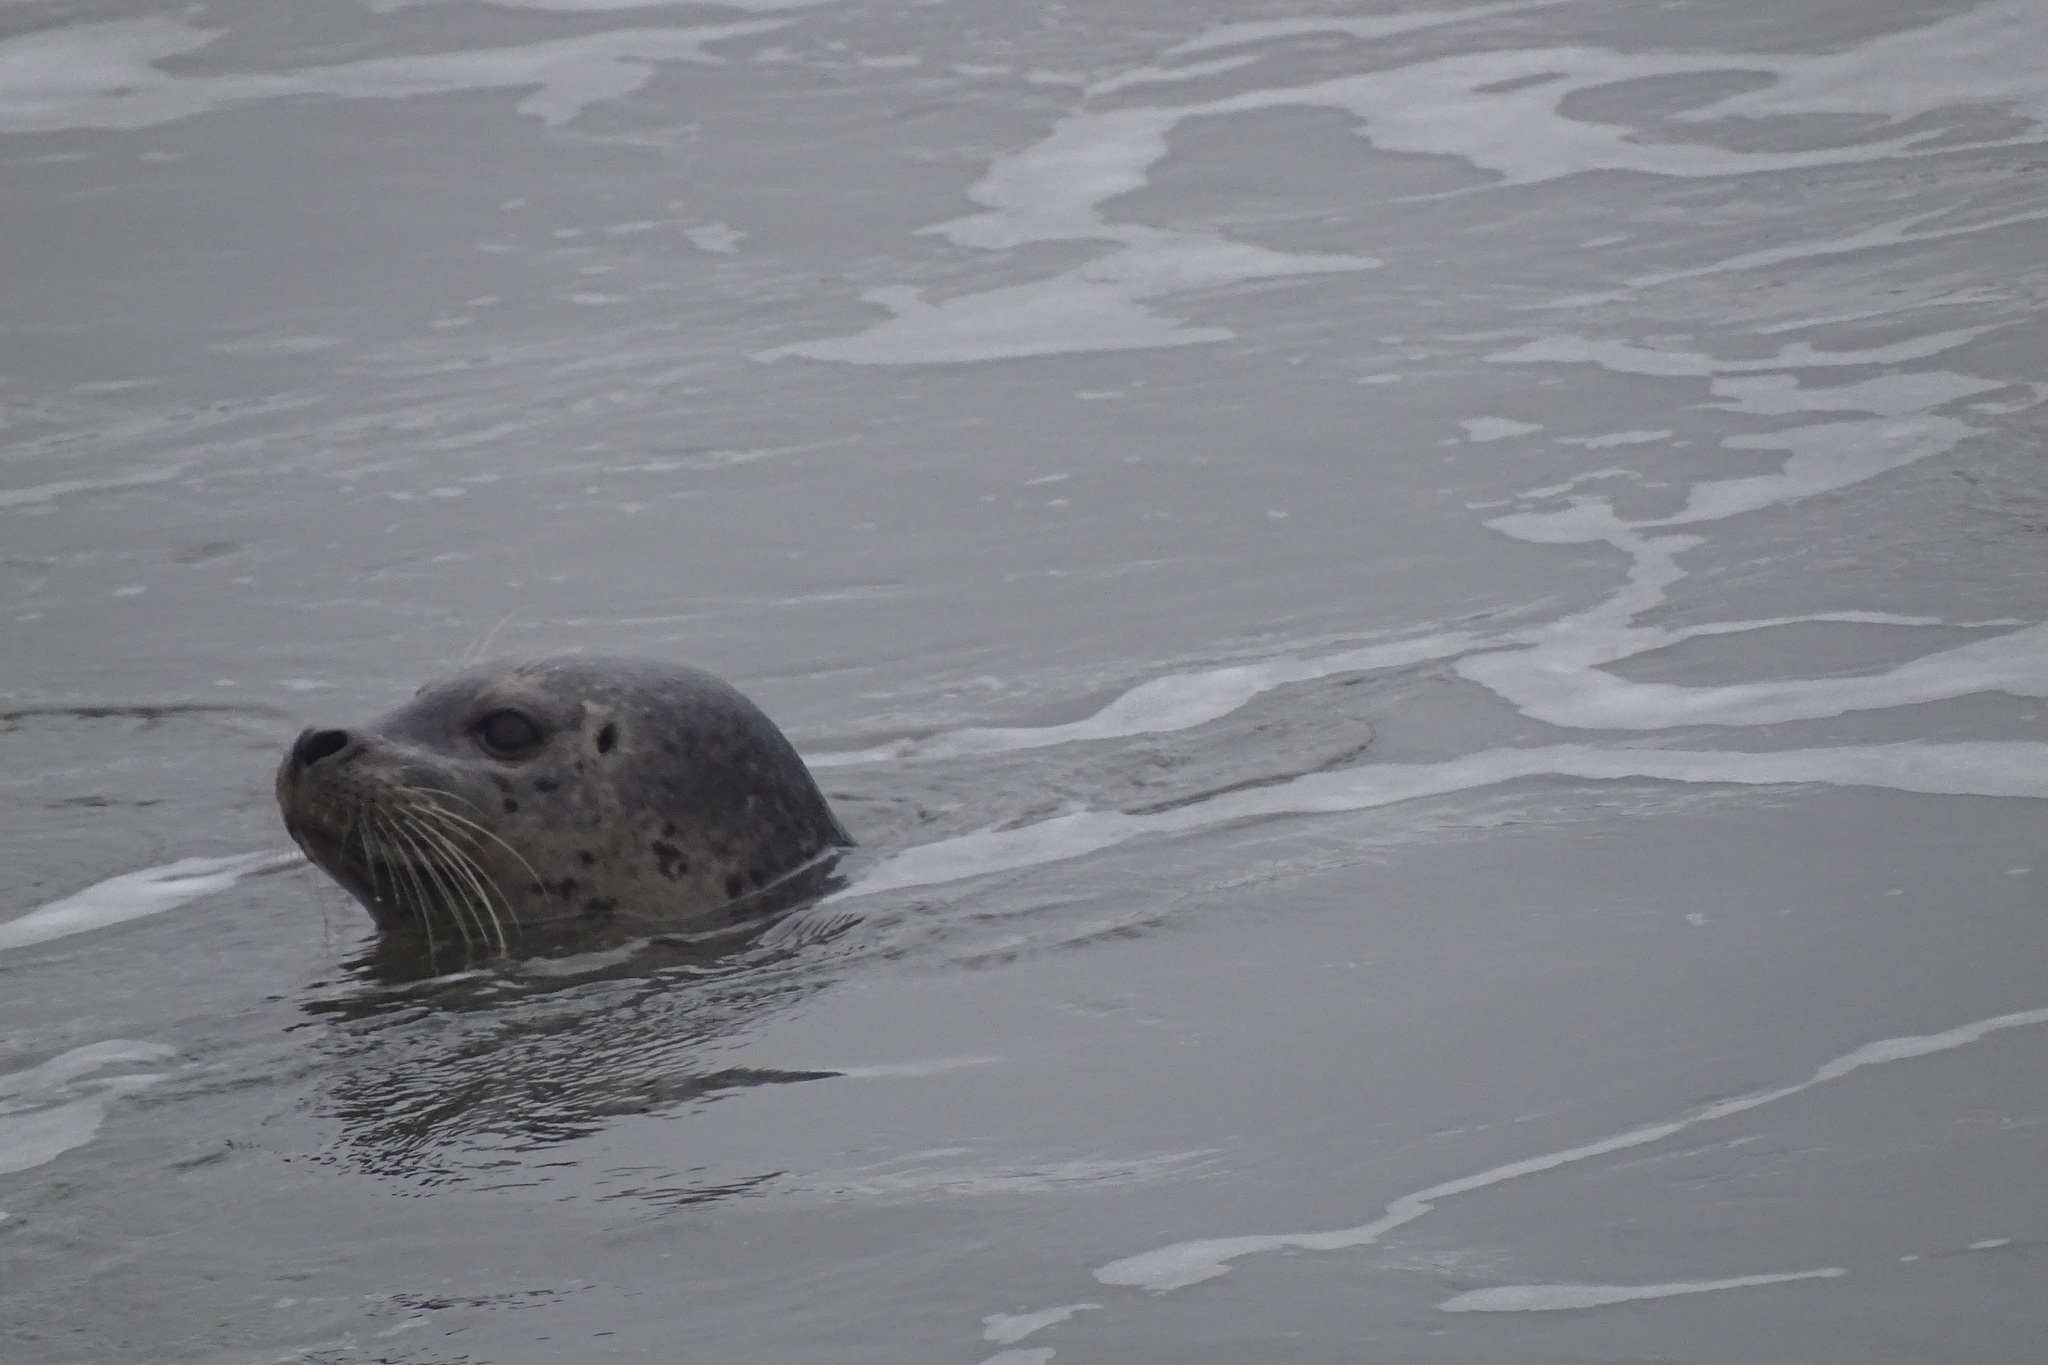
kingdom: Animalia
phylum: Chordata
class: Mammalia
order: Carnivora
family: Phocidae
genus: Phoca
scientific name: Phoca vitulina
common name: Harbor seal
